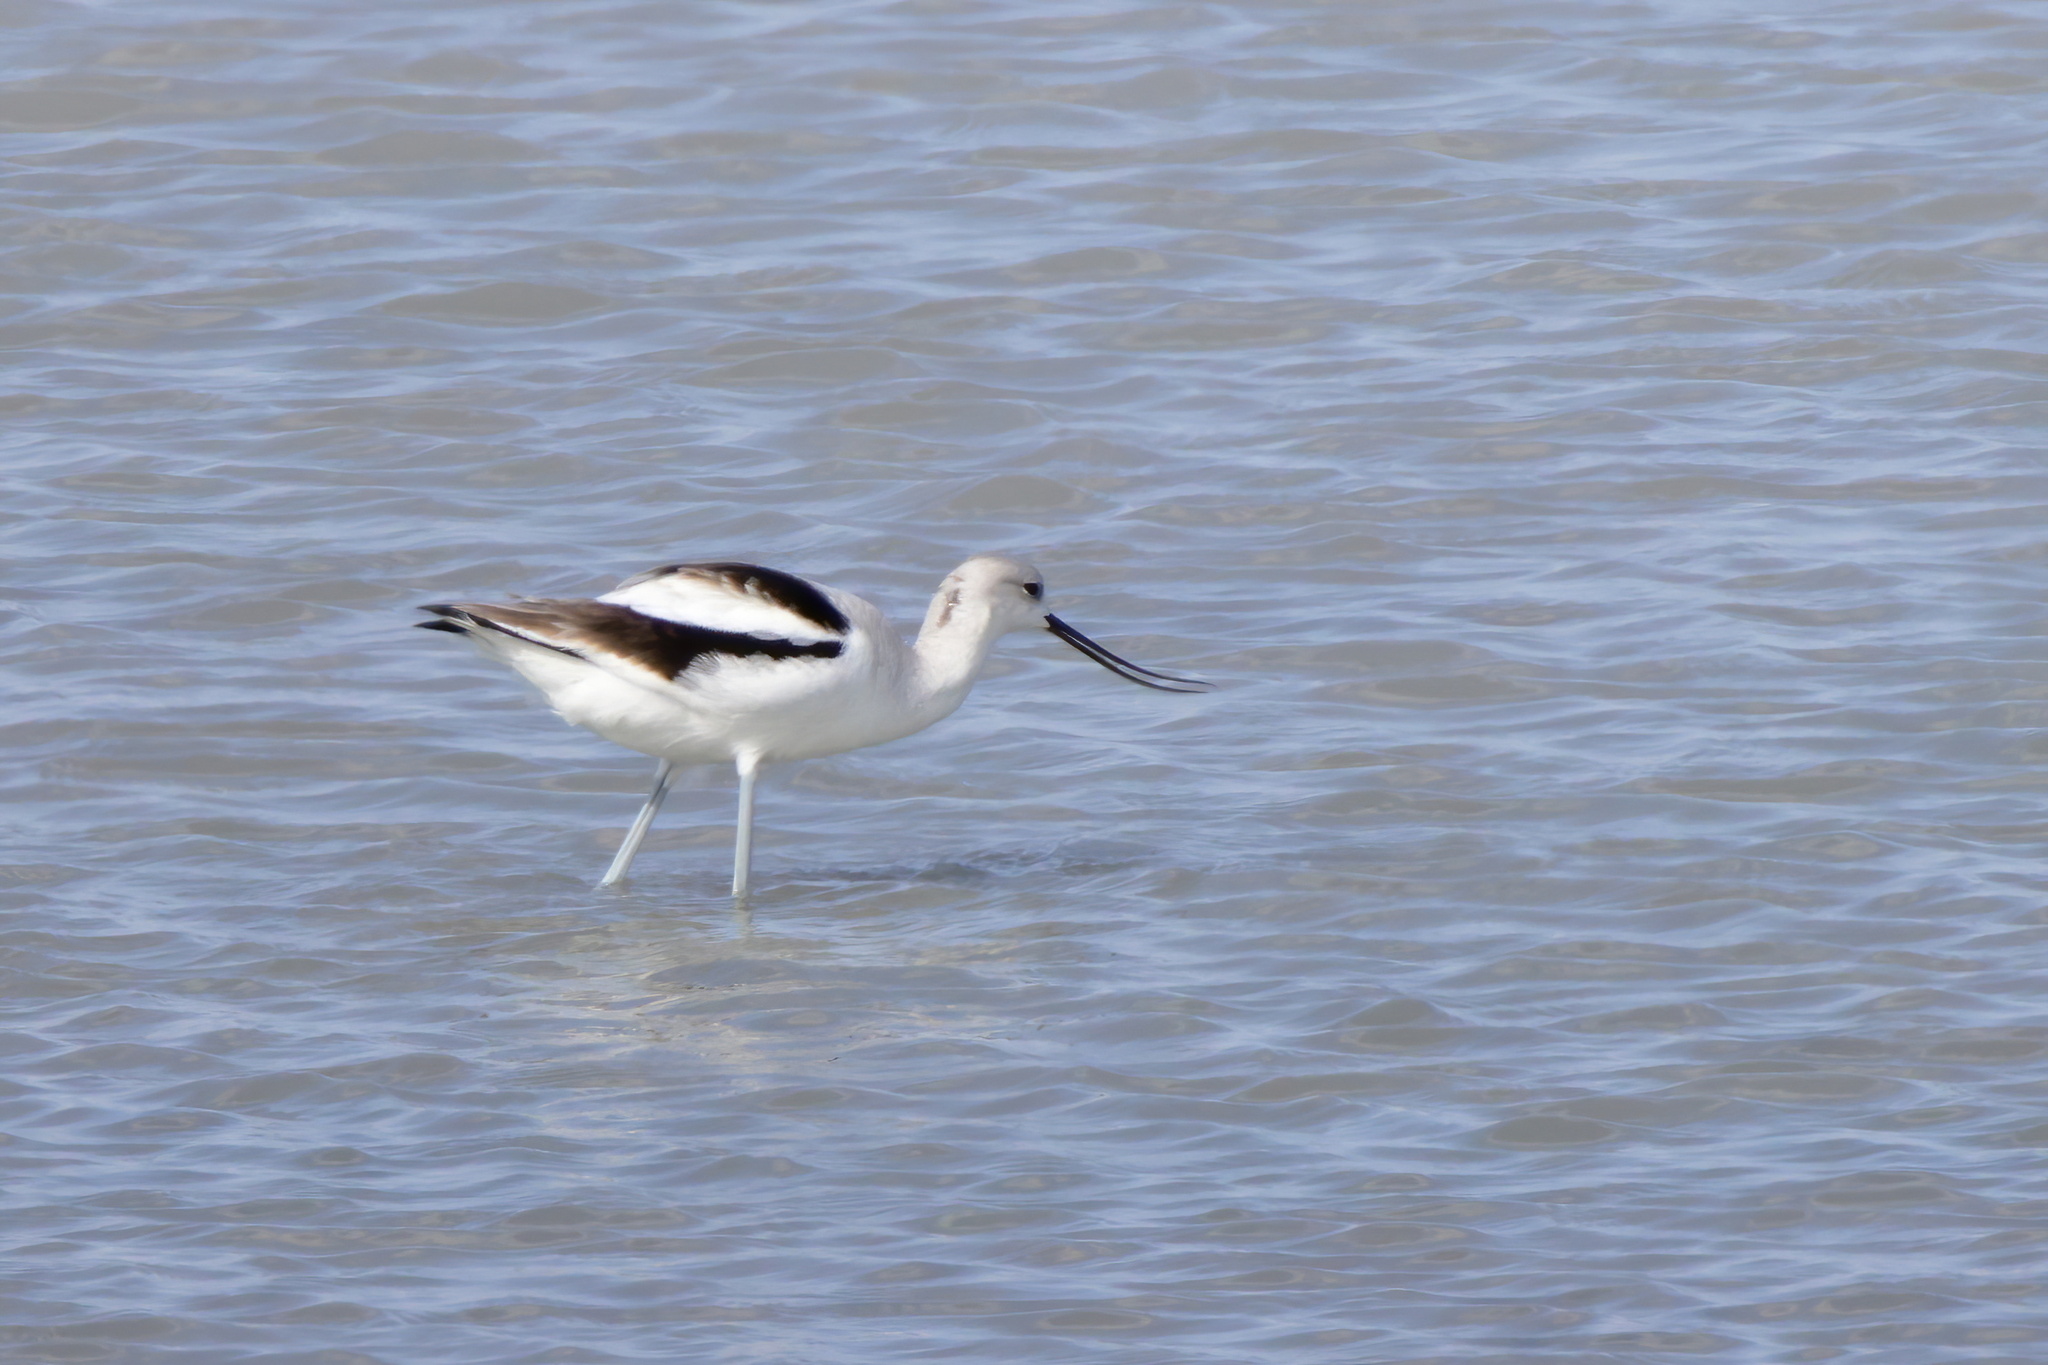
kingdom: Animalia
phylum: Chordata
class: Aves
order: Charadriiformes
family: Recurvirostridae
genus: Recurvirostra
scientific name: Recurvirostra americana
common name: American avocet
